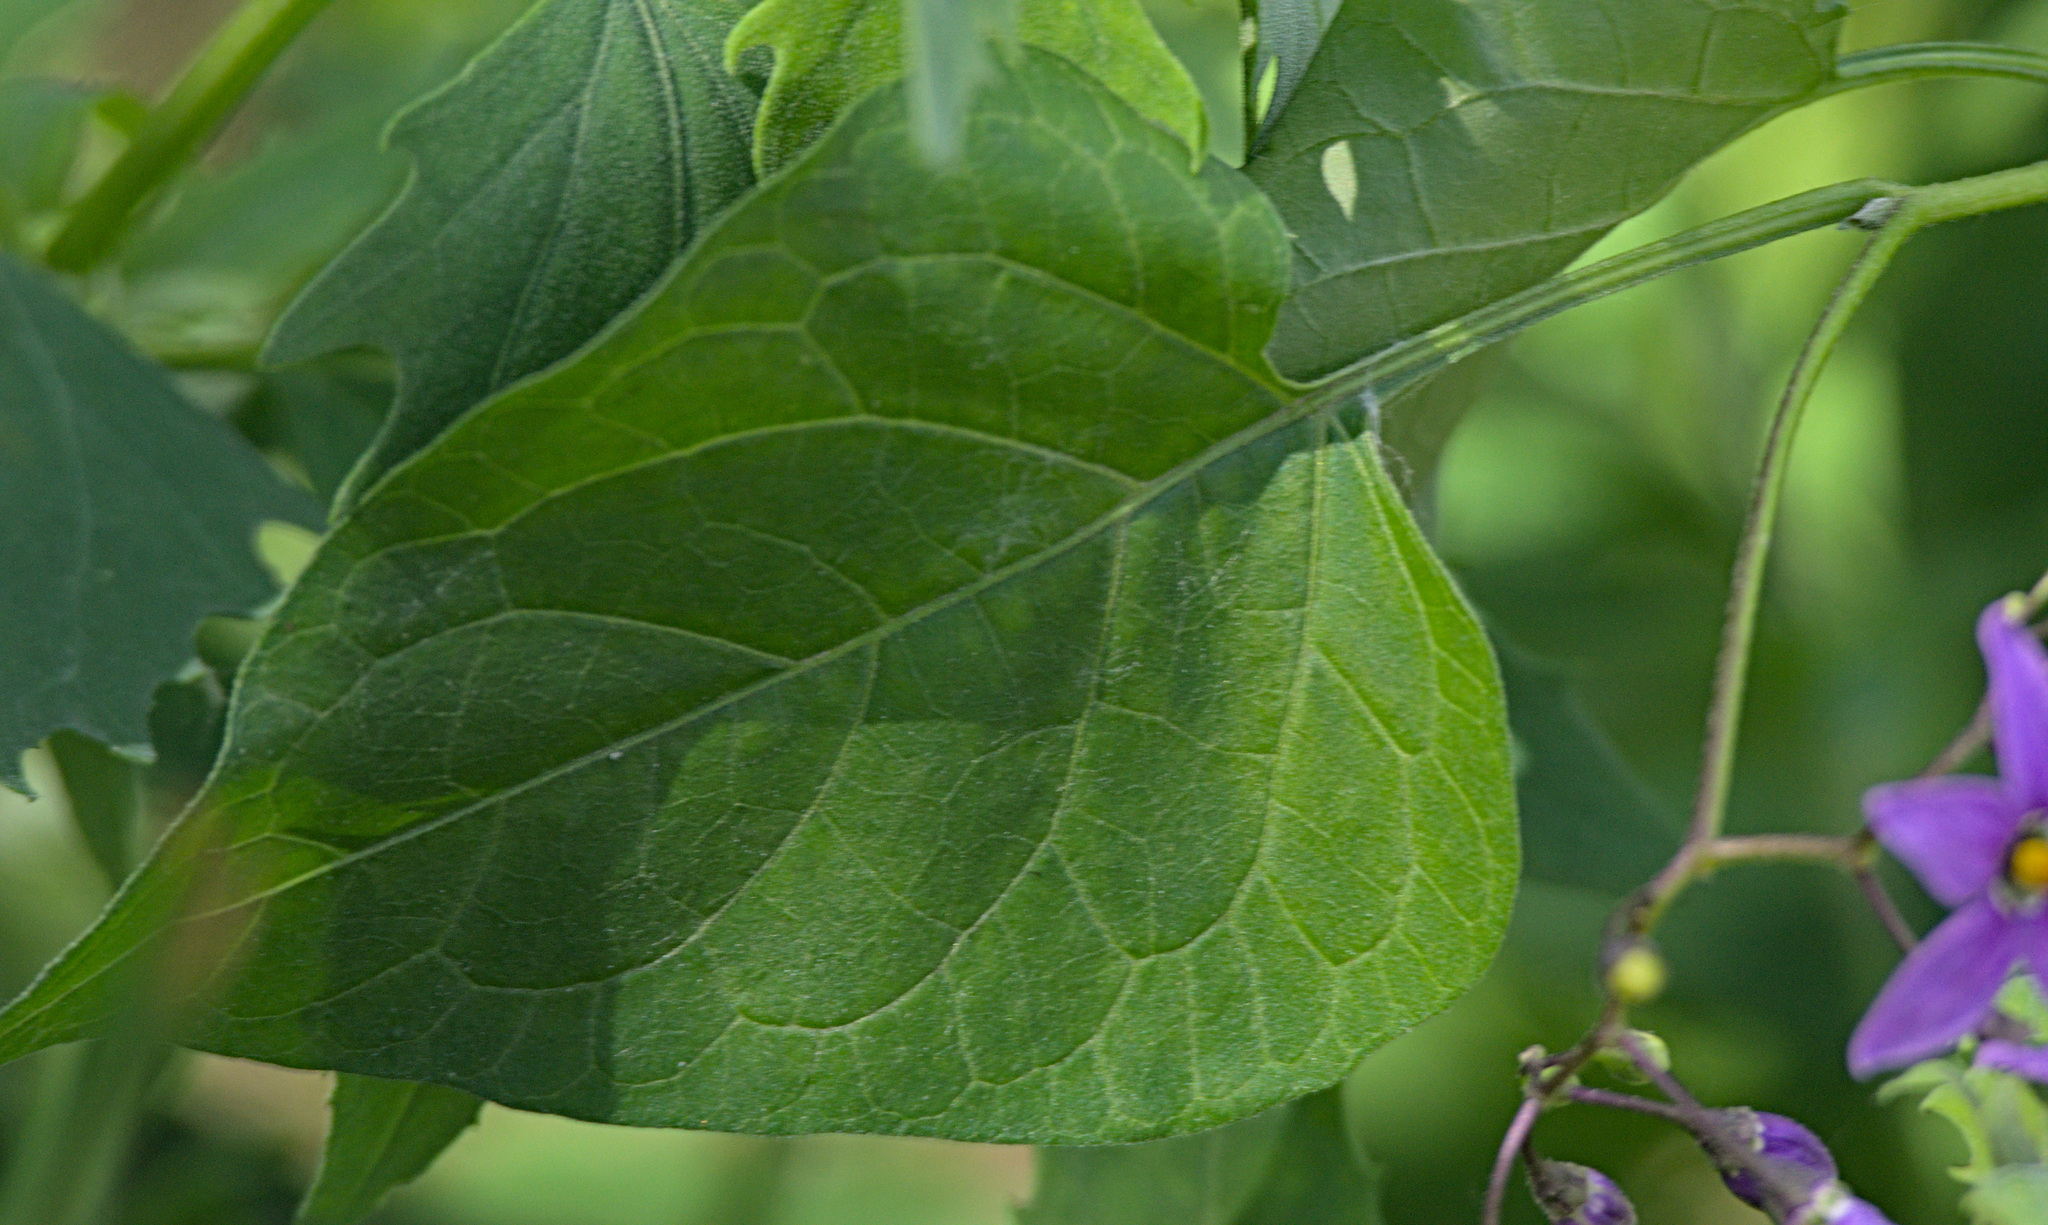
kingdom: Plantae
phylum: Tracheophyta
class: Magnoliopsida
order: Solanales
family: Solanaceae
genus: Solanum
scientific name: Solanum dulcamara
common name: Climbing nightshade
